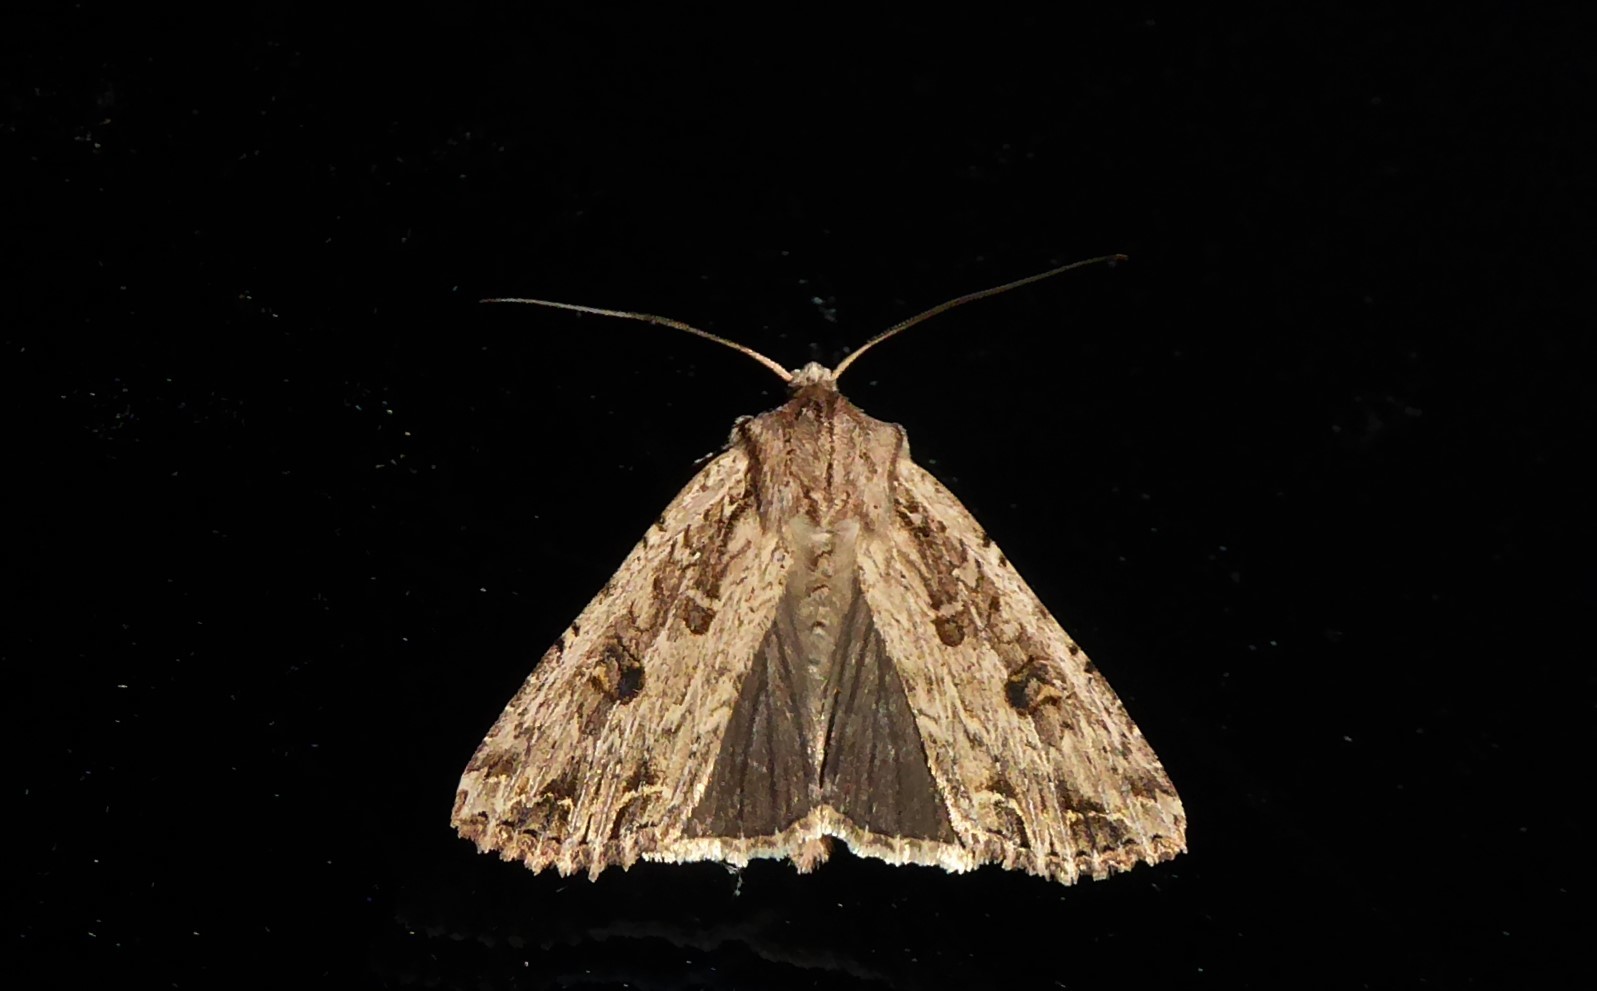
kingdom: Animalia
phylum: Arthropoda
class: Insecta
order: Lepidoptera
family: Noctuidae
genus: Ichneutica
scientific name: Ichneutica lignana
